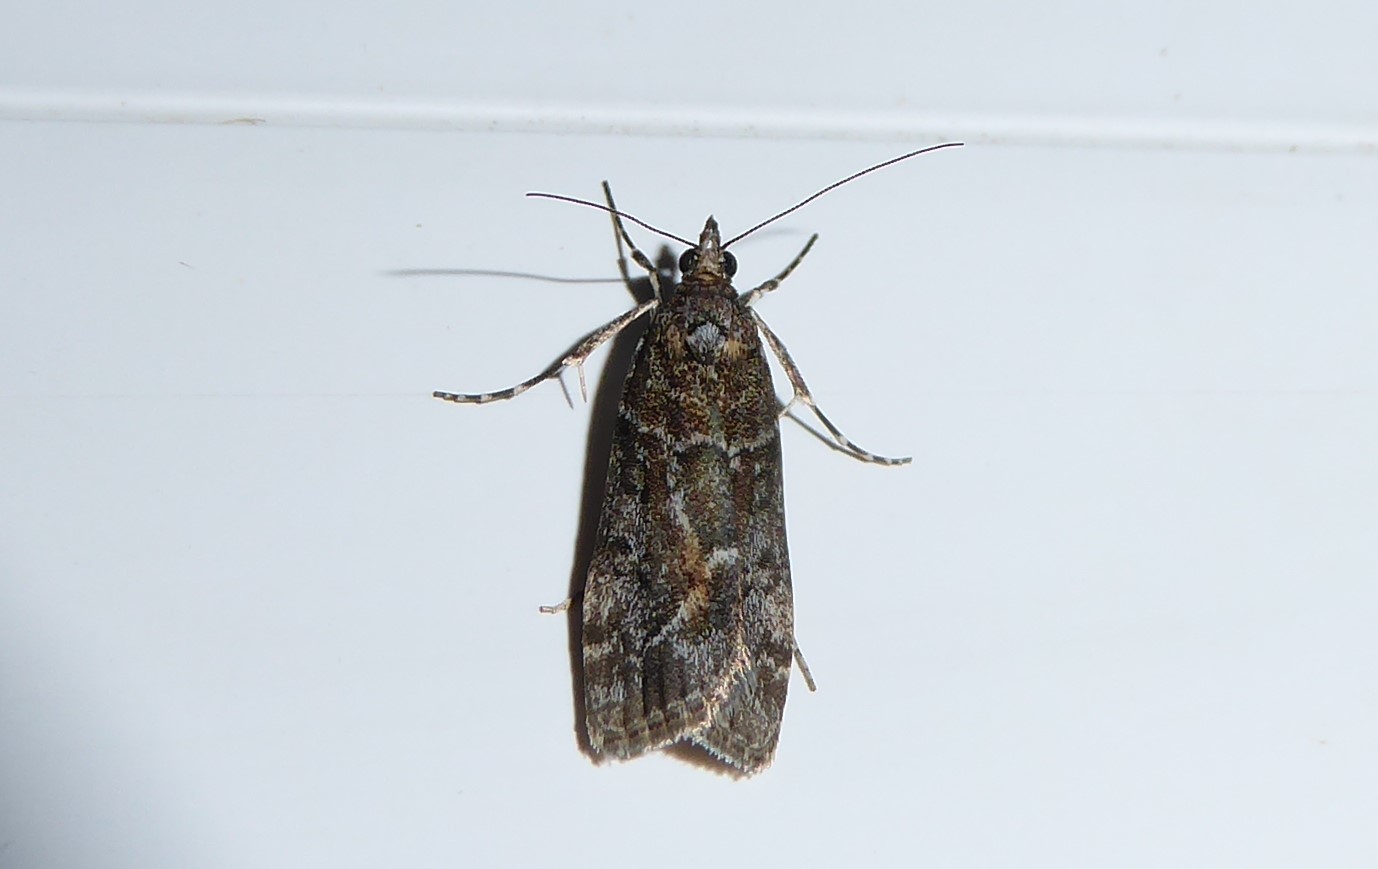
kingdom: Animalia
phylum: Arthropoda
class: Insecta
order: Lepidoptera
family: Crambidae
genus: Eudonia
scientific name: Eudonia submarginalis
